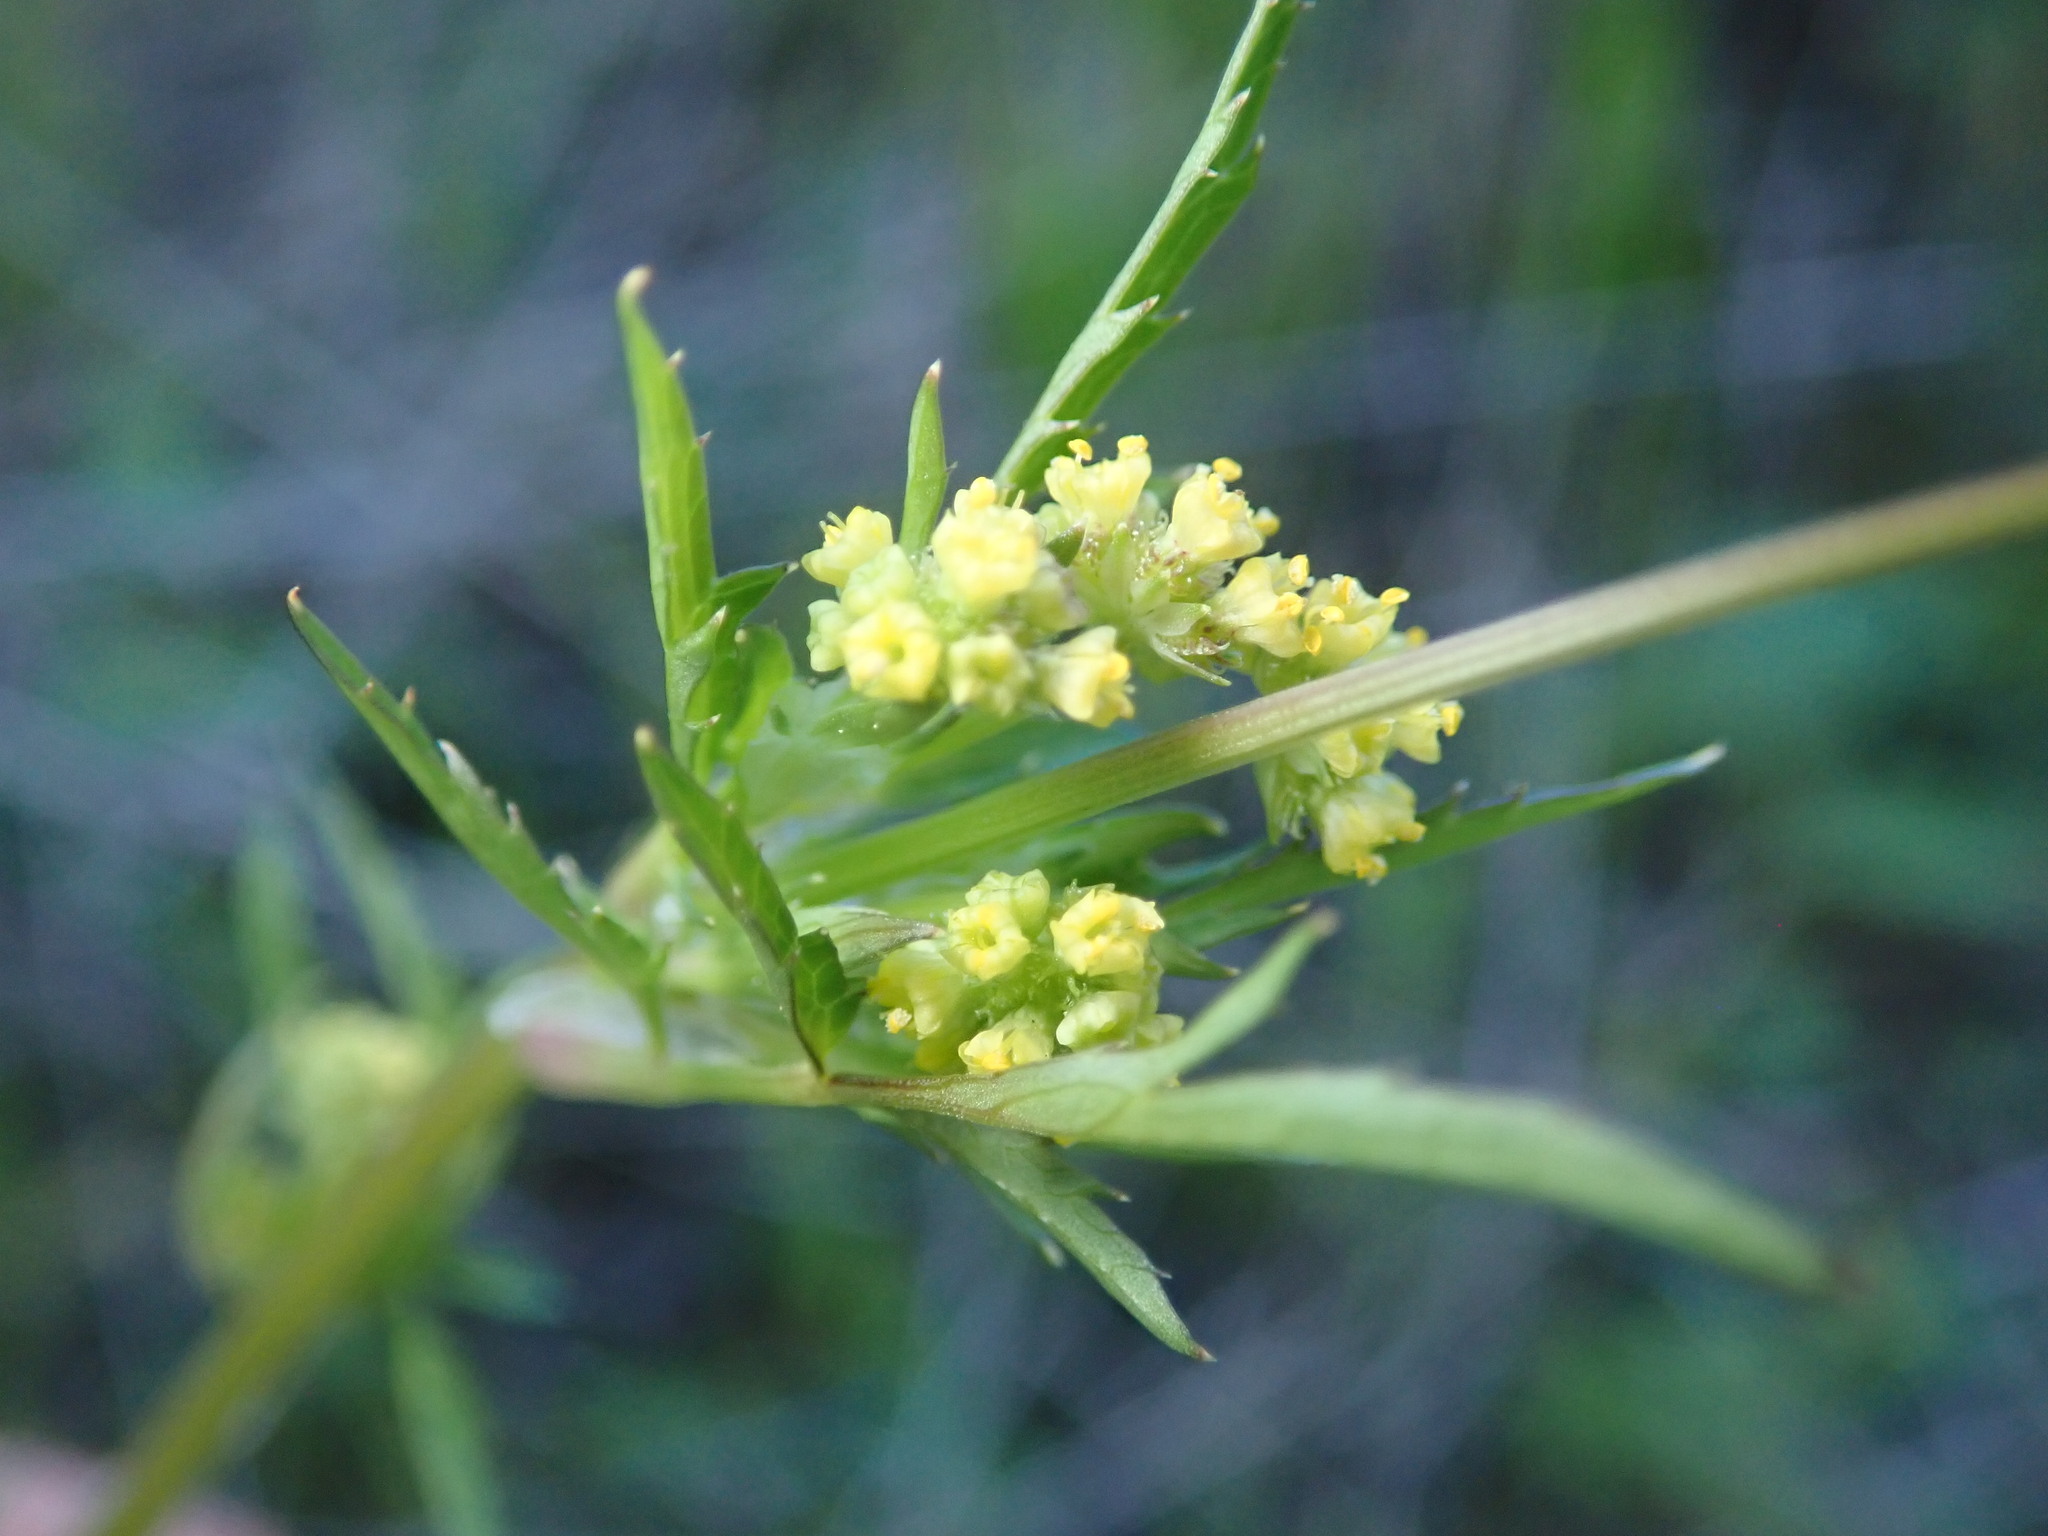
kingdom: Plantae
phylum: Tracheophyta
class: Magnoliopsida
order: Apiales
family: Apiaceae
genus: Sanicula
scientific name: Sanicula bipinnata
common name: Poison sanicle
